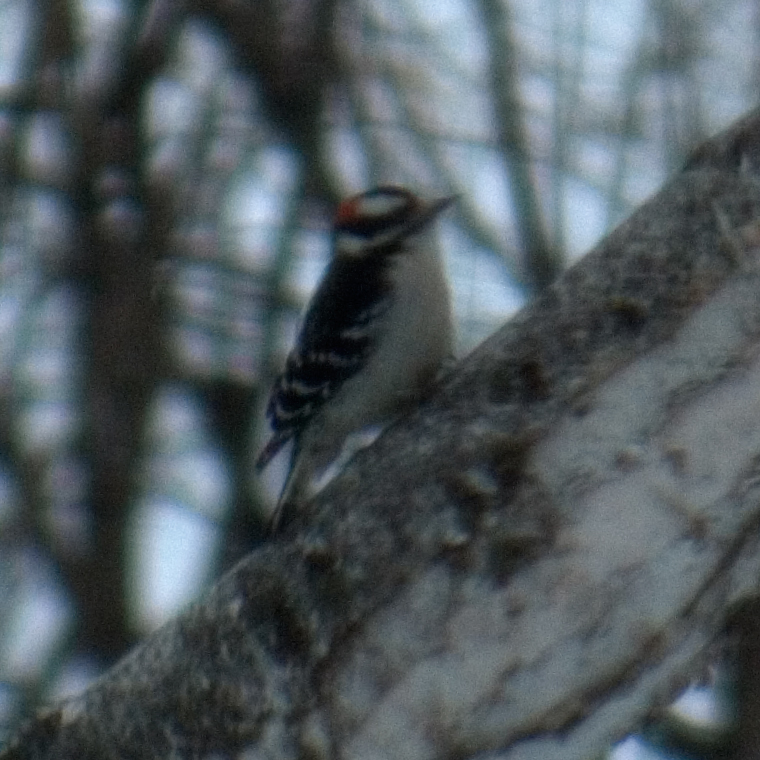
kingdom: Animalia
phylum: Chordata
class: Aves
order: Piciformes
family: Picidae
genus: Dryobates
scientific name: Dryobates pubescens
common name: Downy woodpecker
